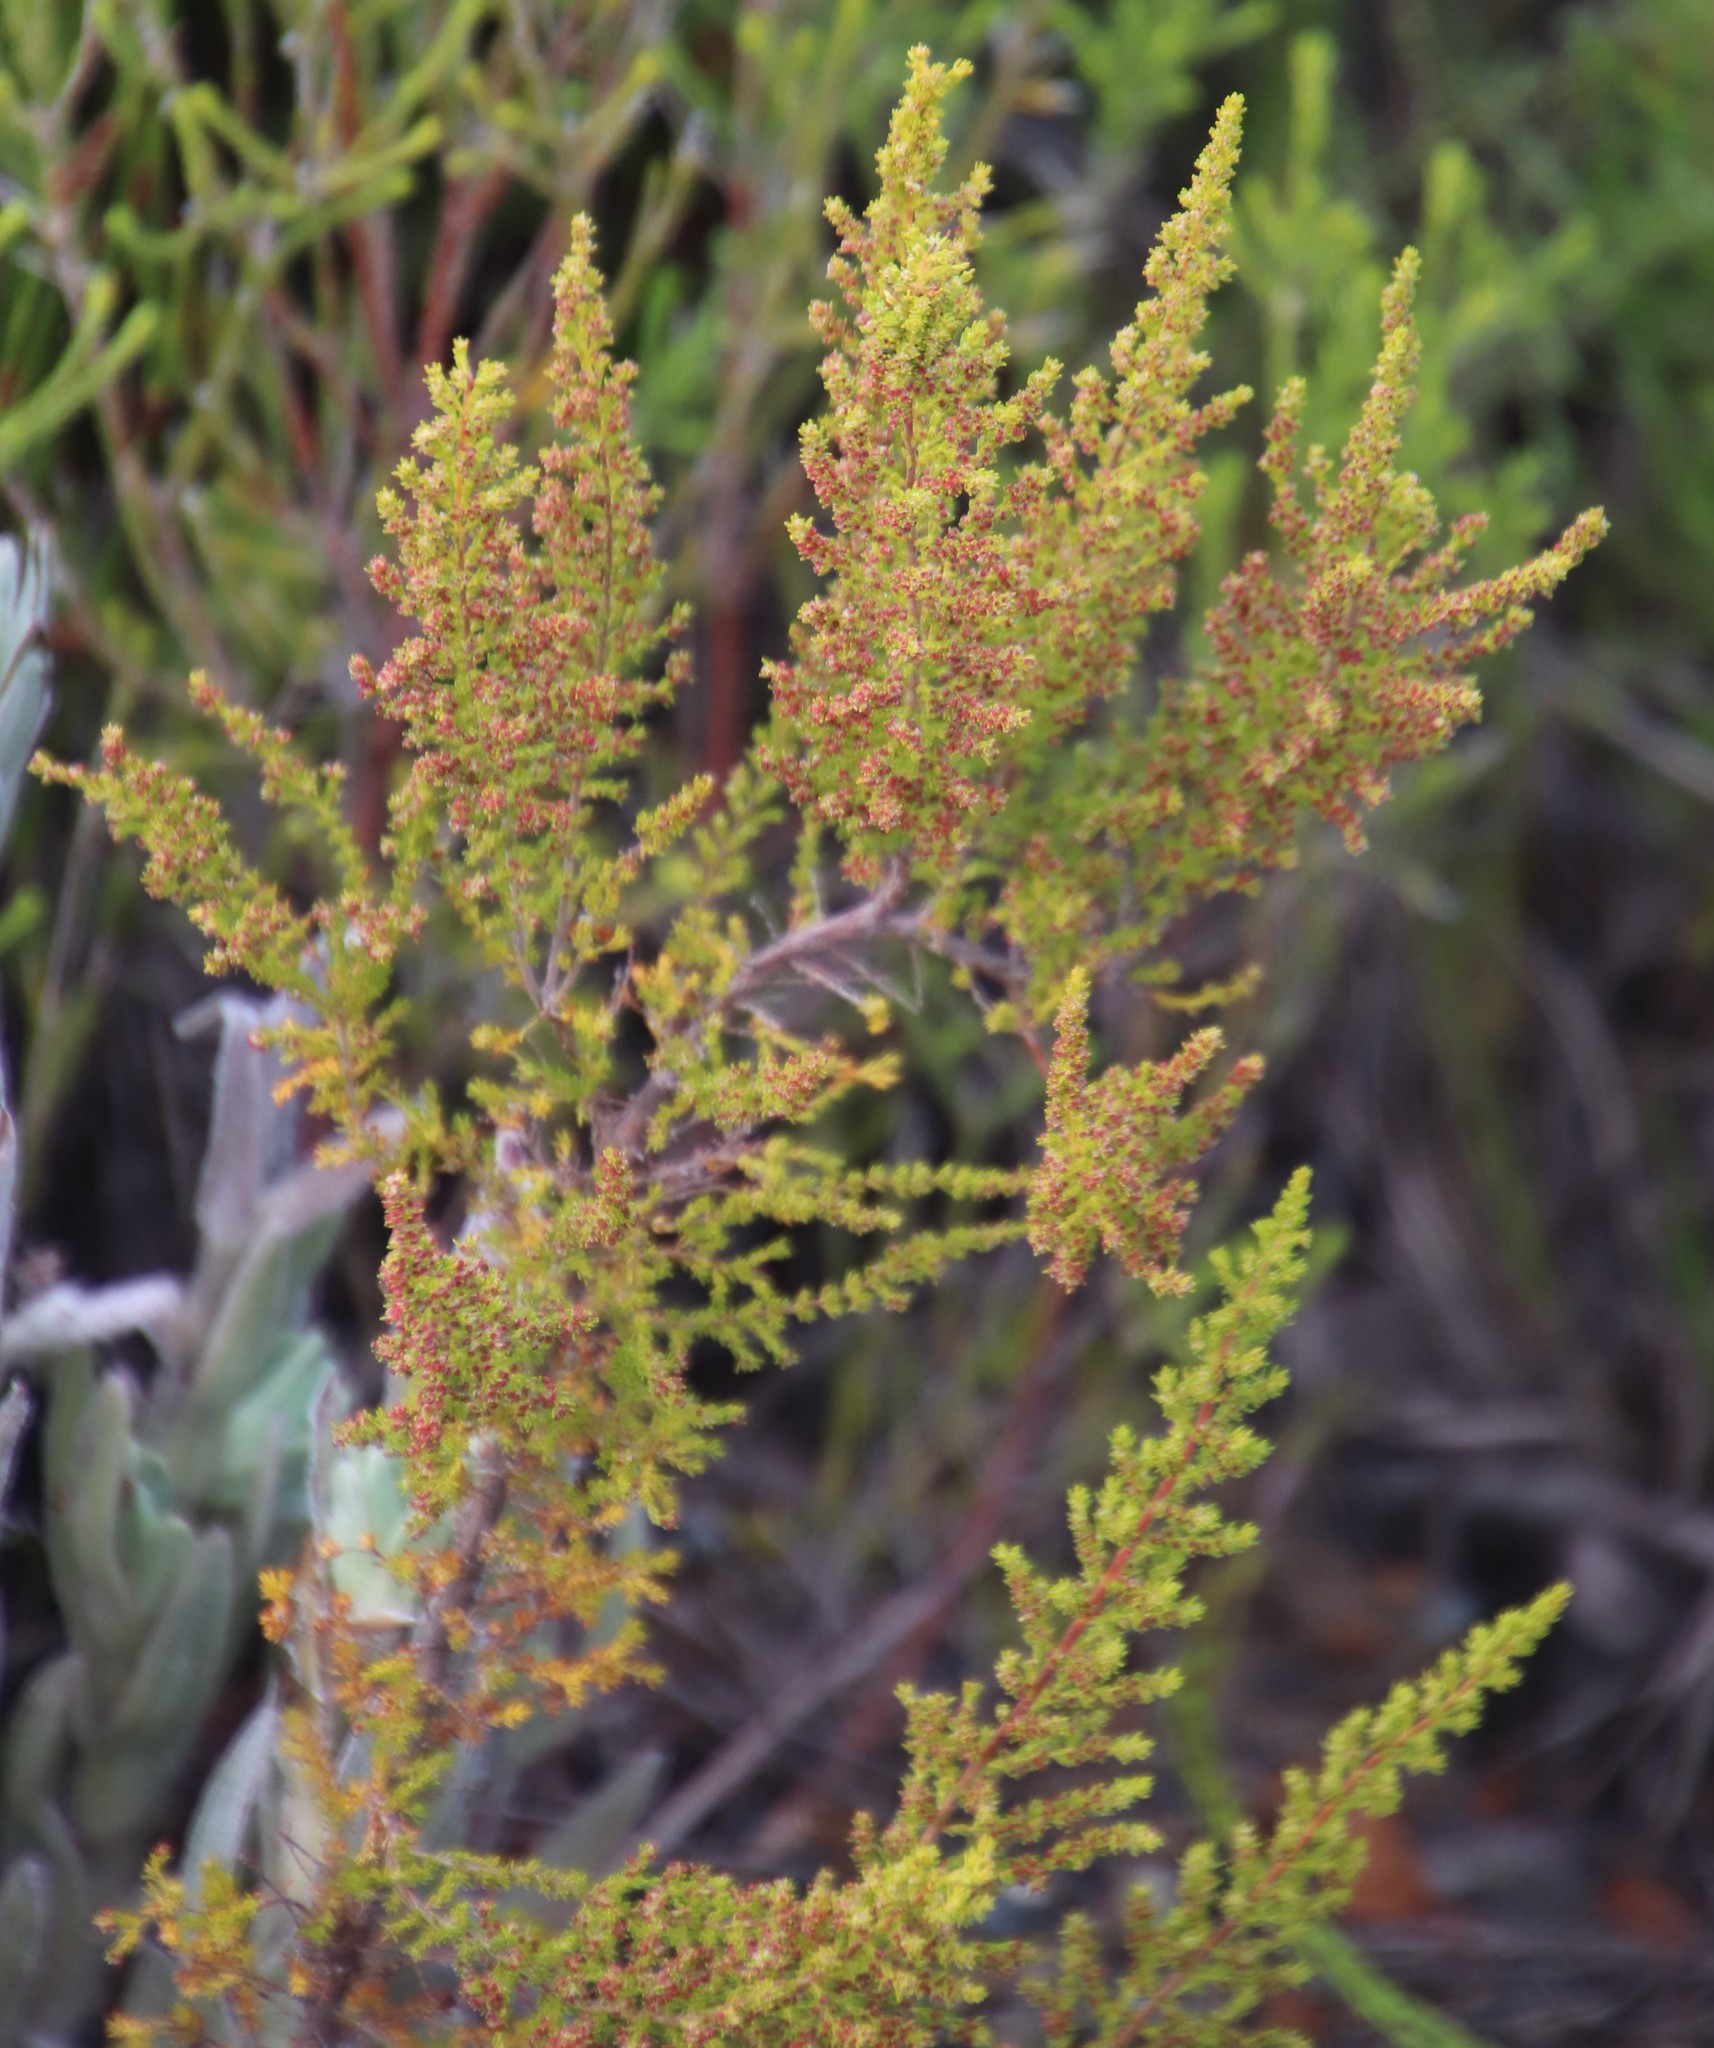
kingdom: Plantae
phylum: Tracheophyta
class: Magnoliopsida
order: Ericales
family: Ericaceae
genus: Erica
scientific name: Erica muscosa
